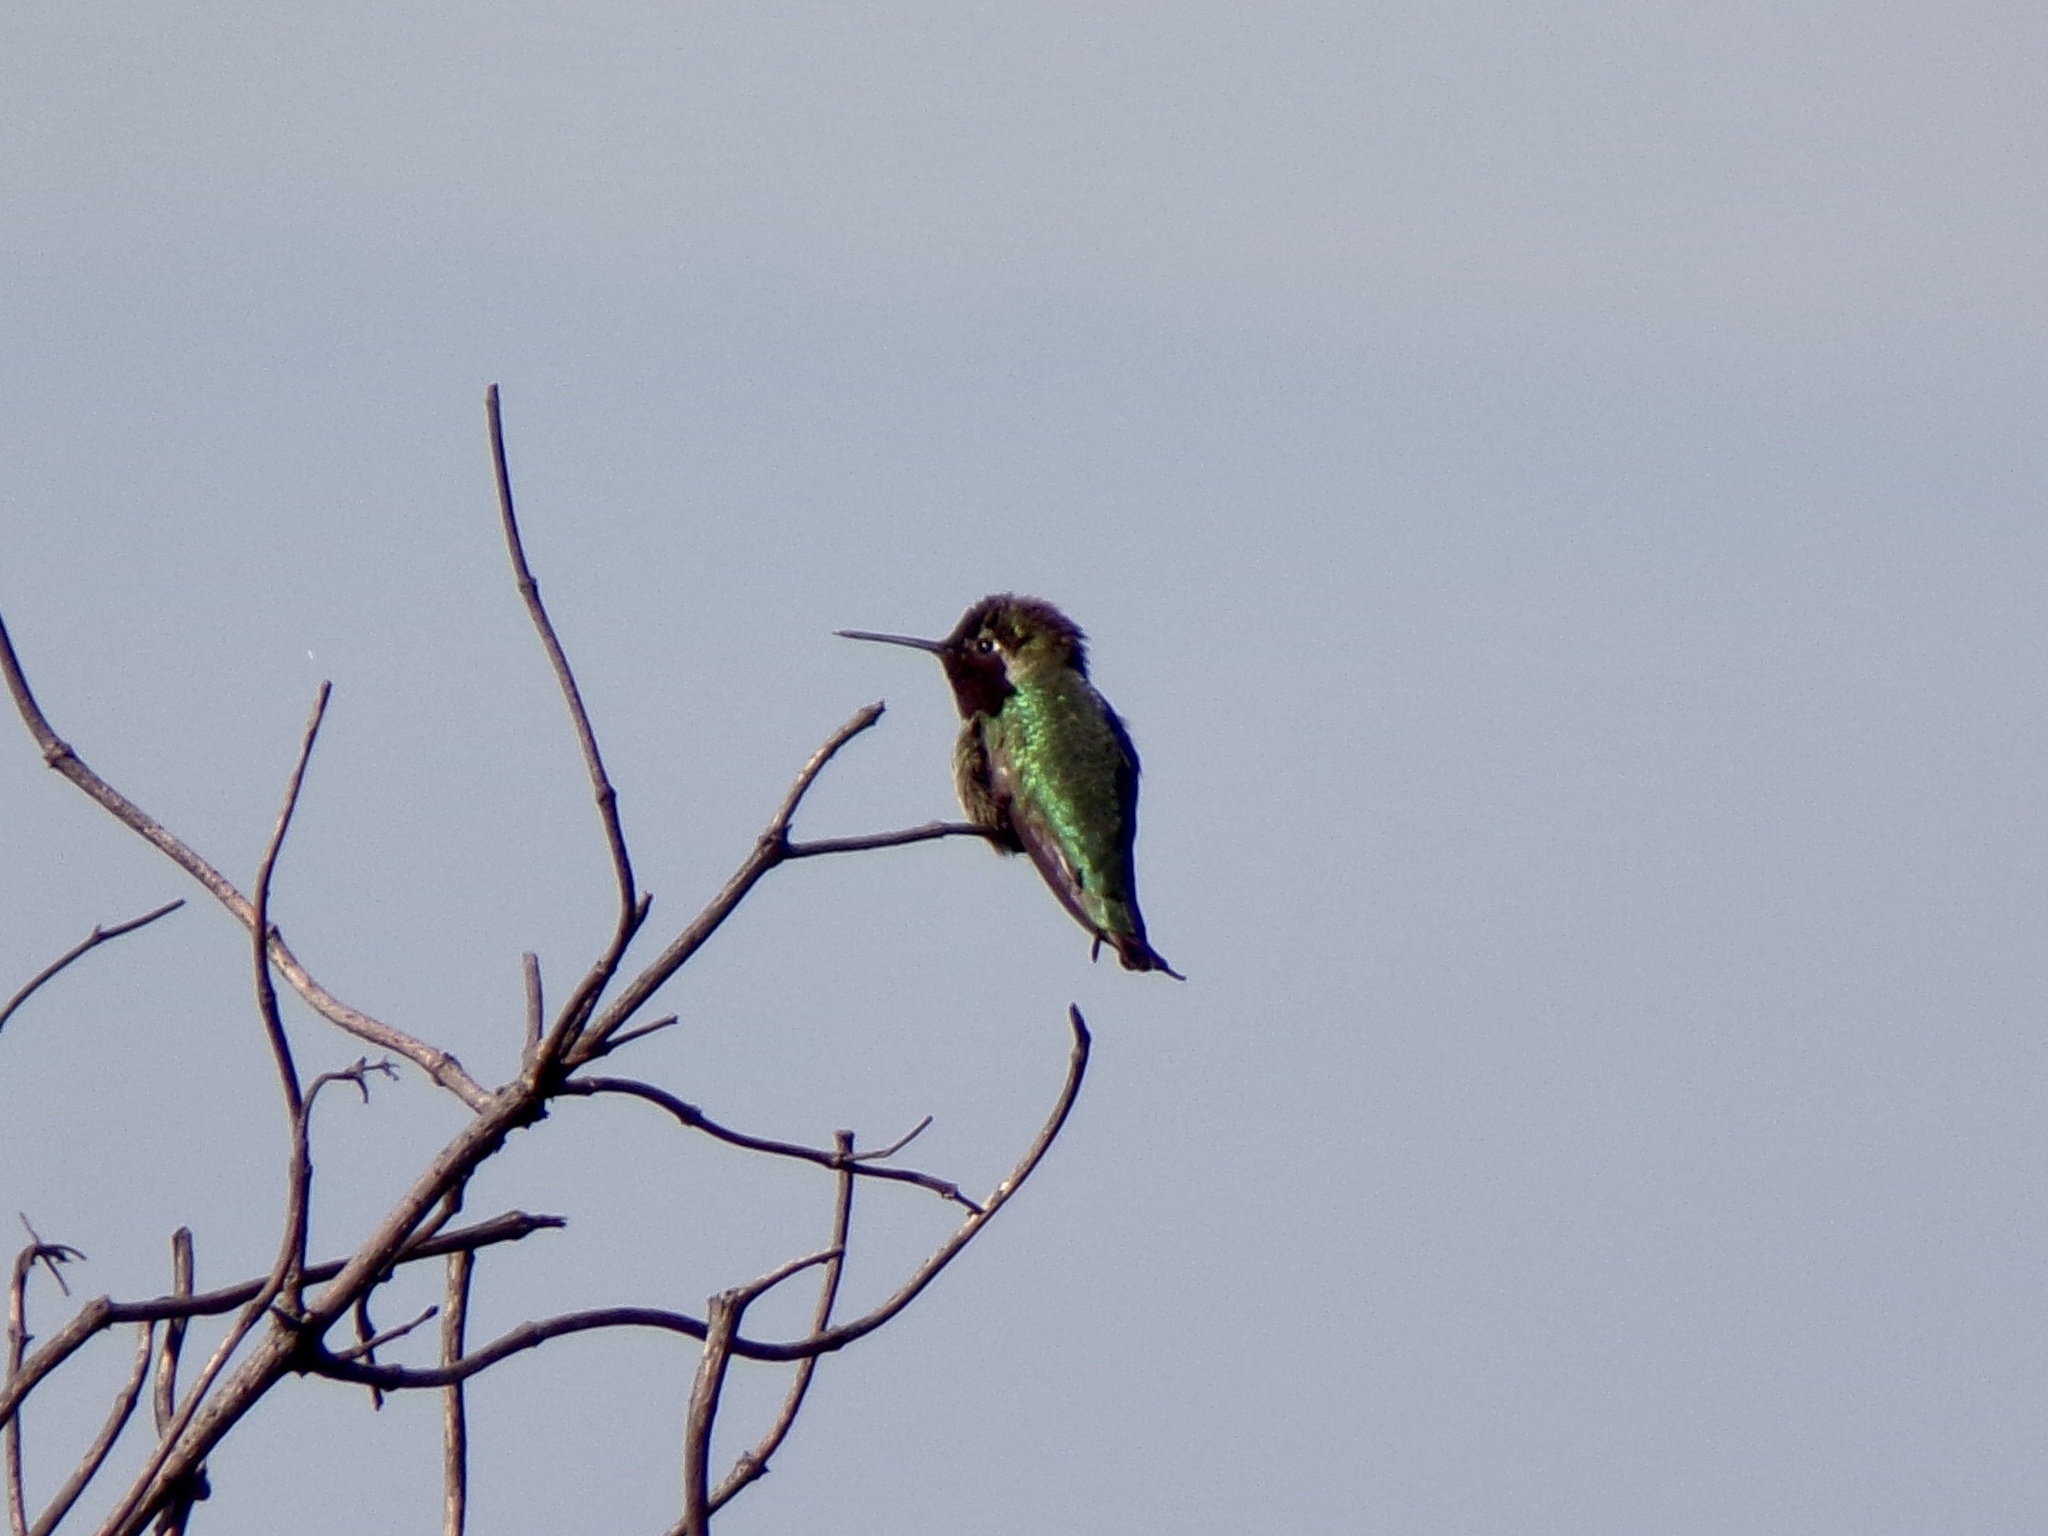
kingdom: Animalia
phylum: Chordata
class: Aves
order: Apodiformes
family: Trochilidae
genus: Calypte
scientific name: Calypte anna
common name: Anna's hummingbird
